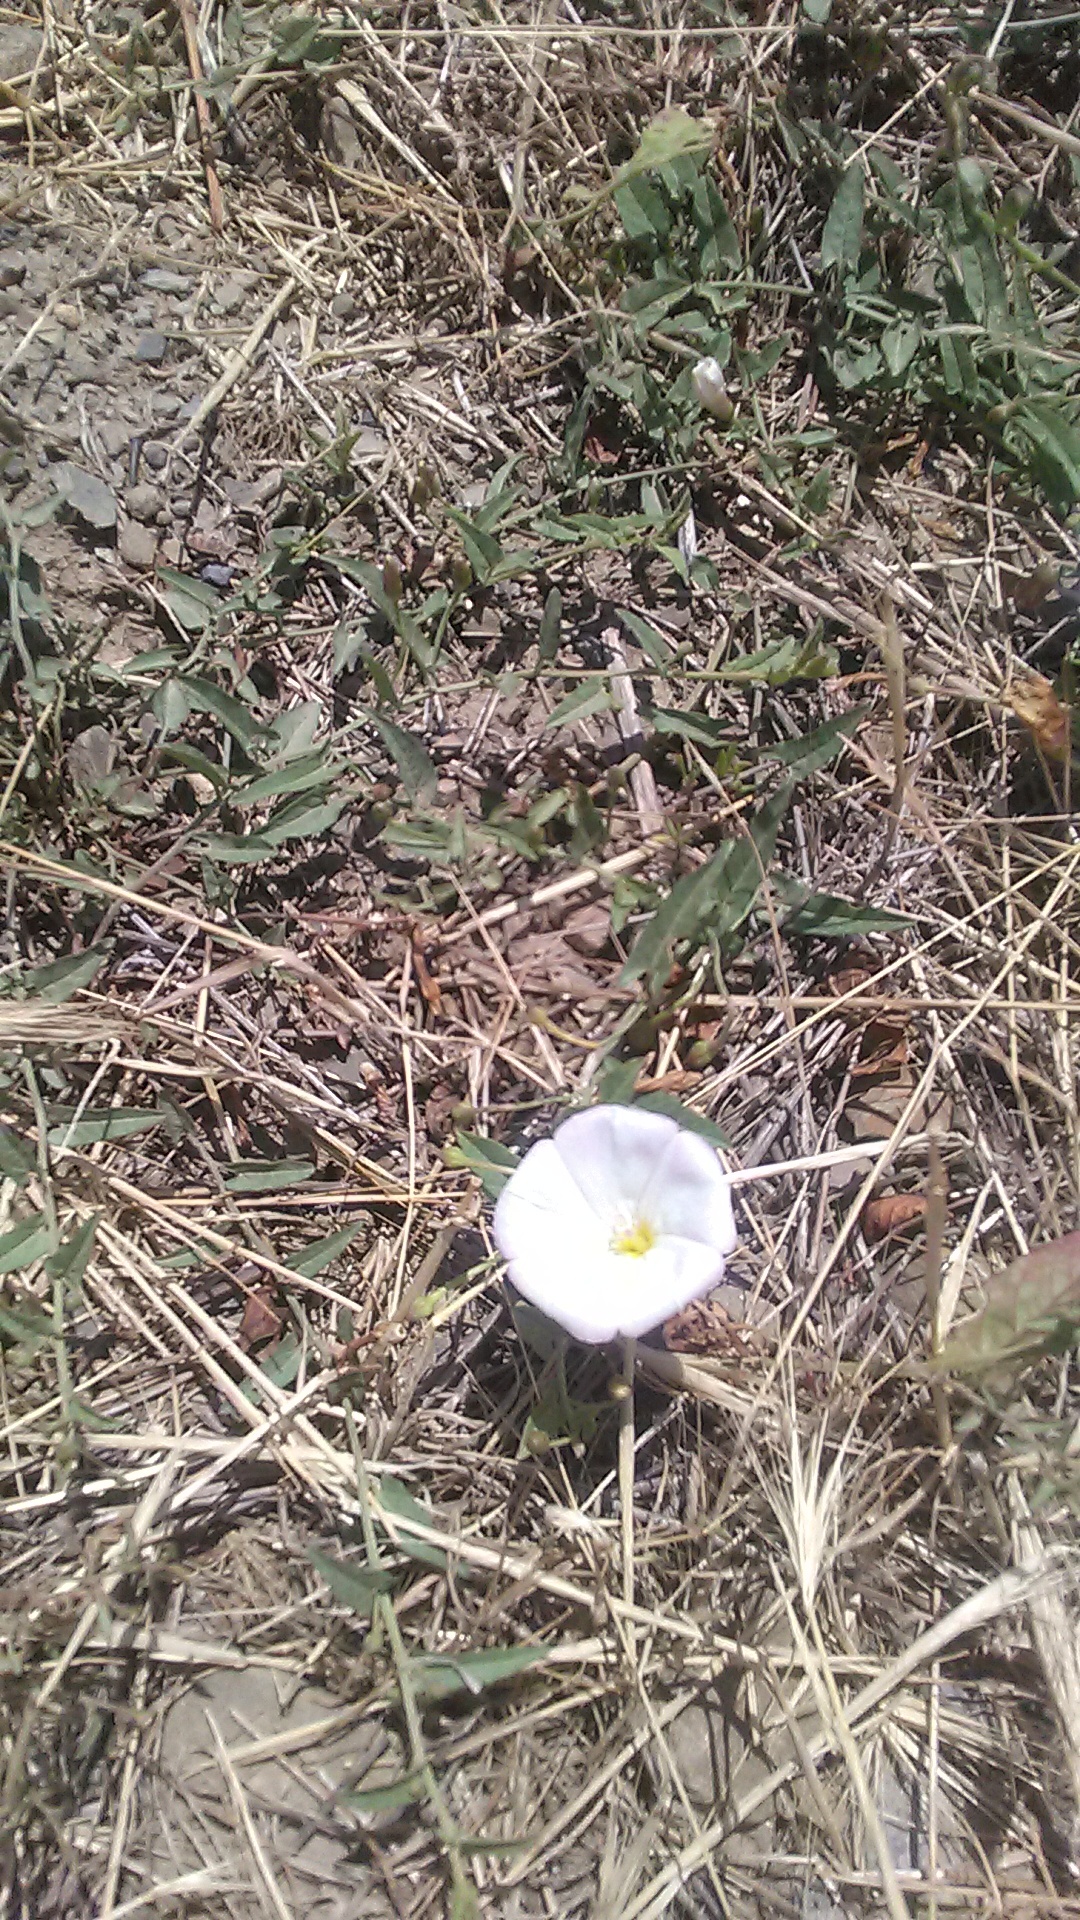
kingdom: Plantae
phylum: Tracheophyta
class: Magnoliopsida
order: Solanales
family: Convolvulaceae
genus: Convolvulus
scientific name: Convolvulus arvensis
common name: Field bindweed
